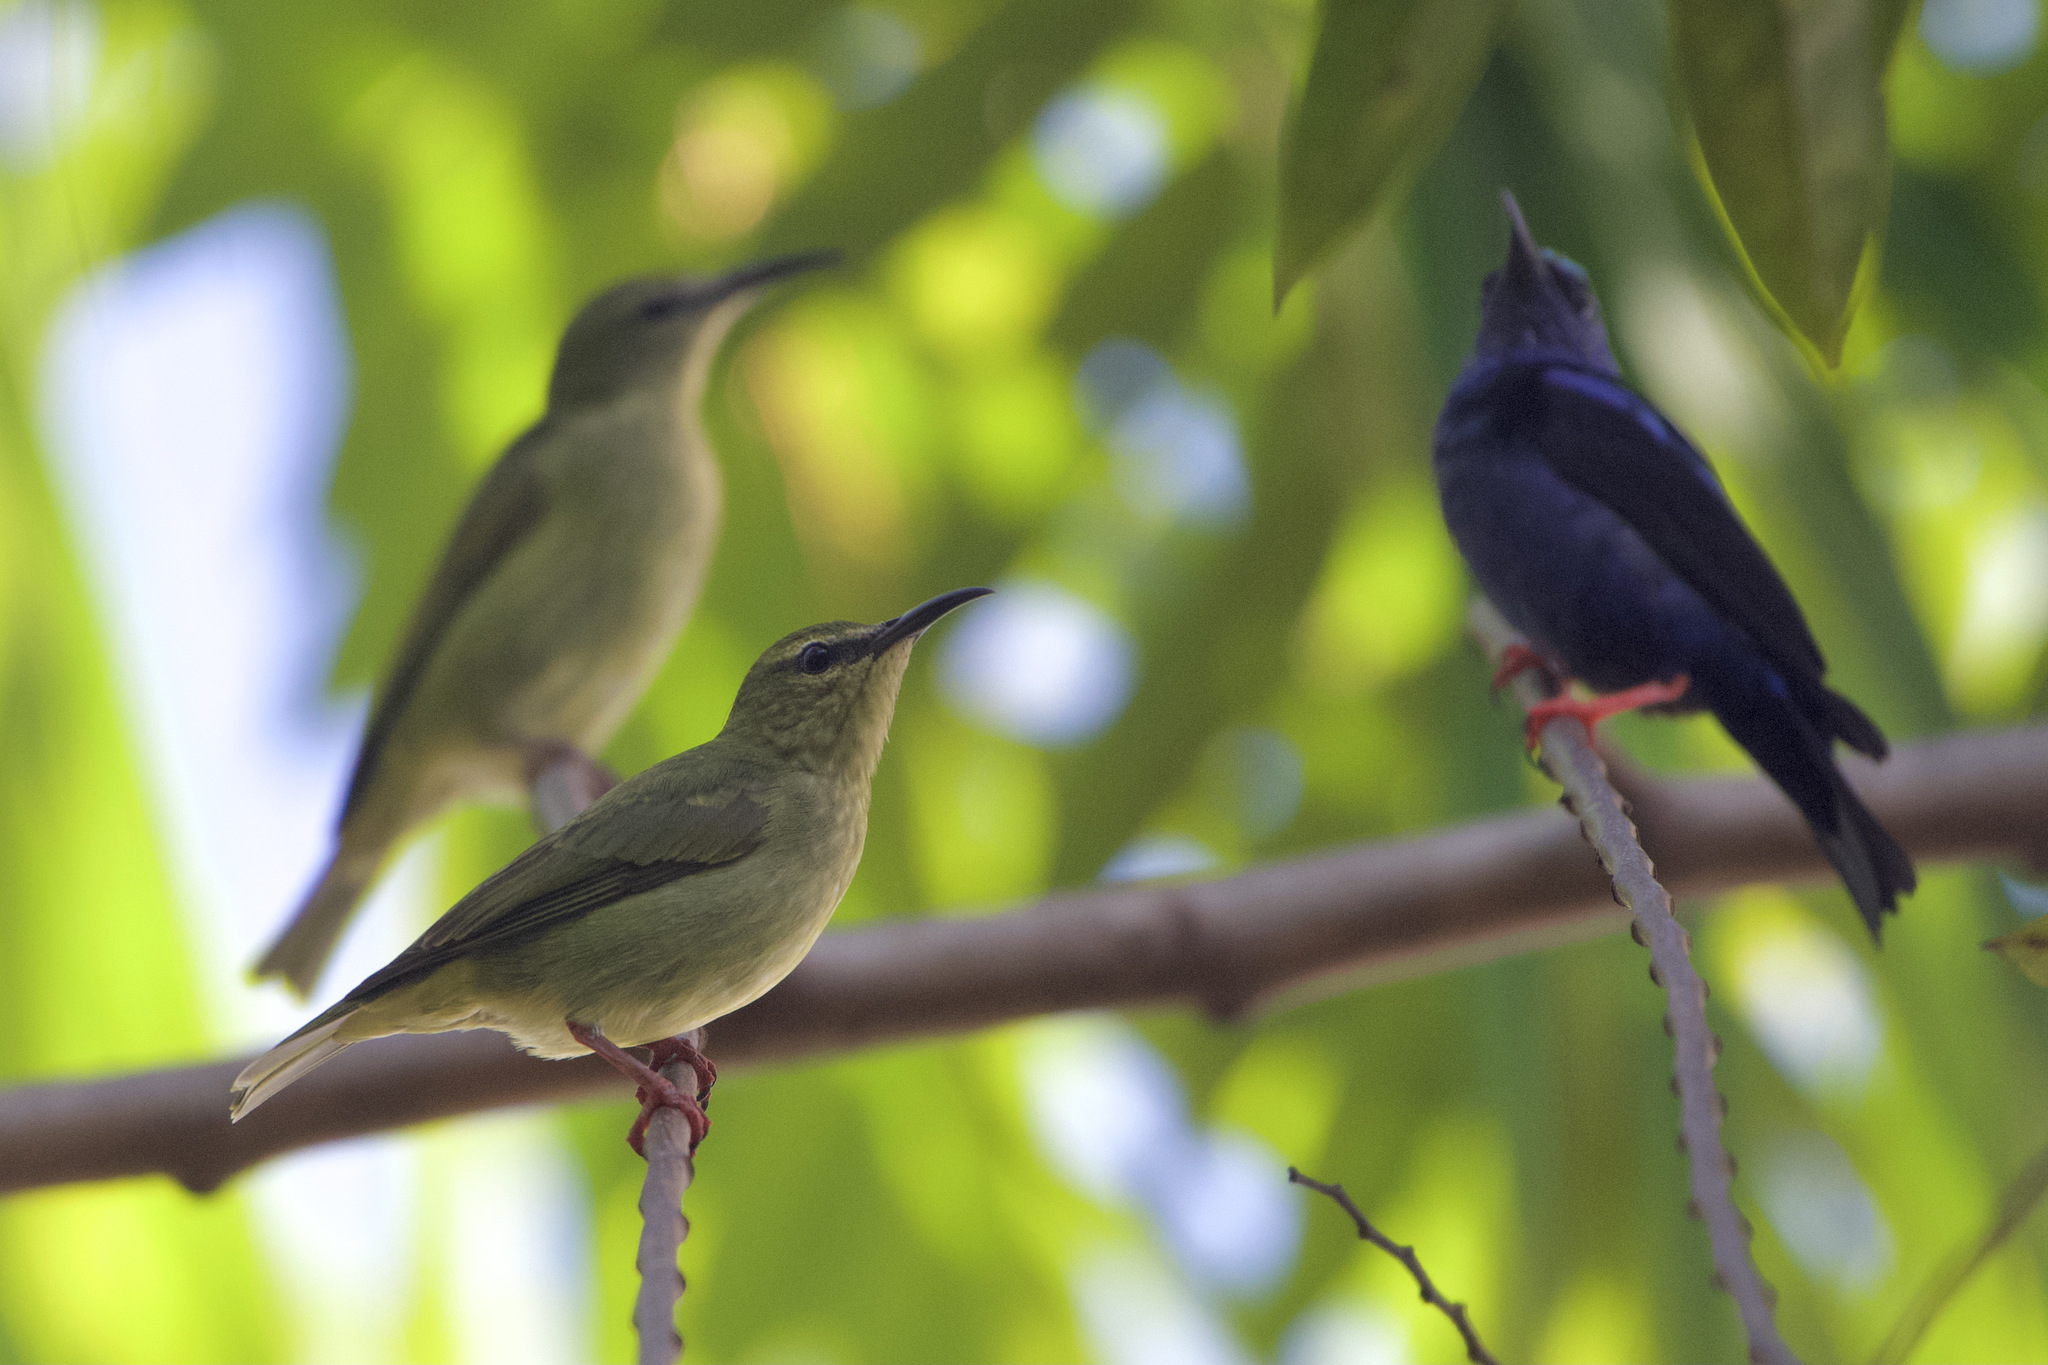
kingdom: Animalia
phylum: Chordata
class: Aves
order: Passeriformes
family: Thraupidae
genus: Cyanerpes
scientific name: Cyanerpes cyaneus
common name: Red-legged honeycreeper
